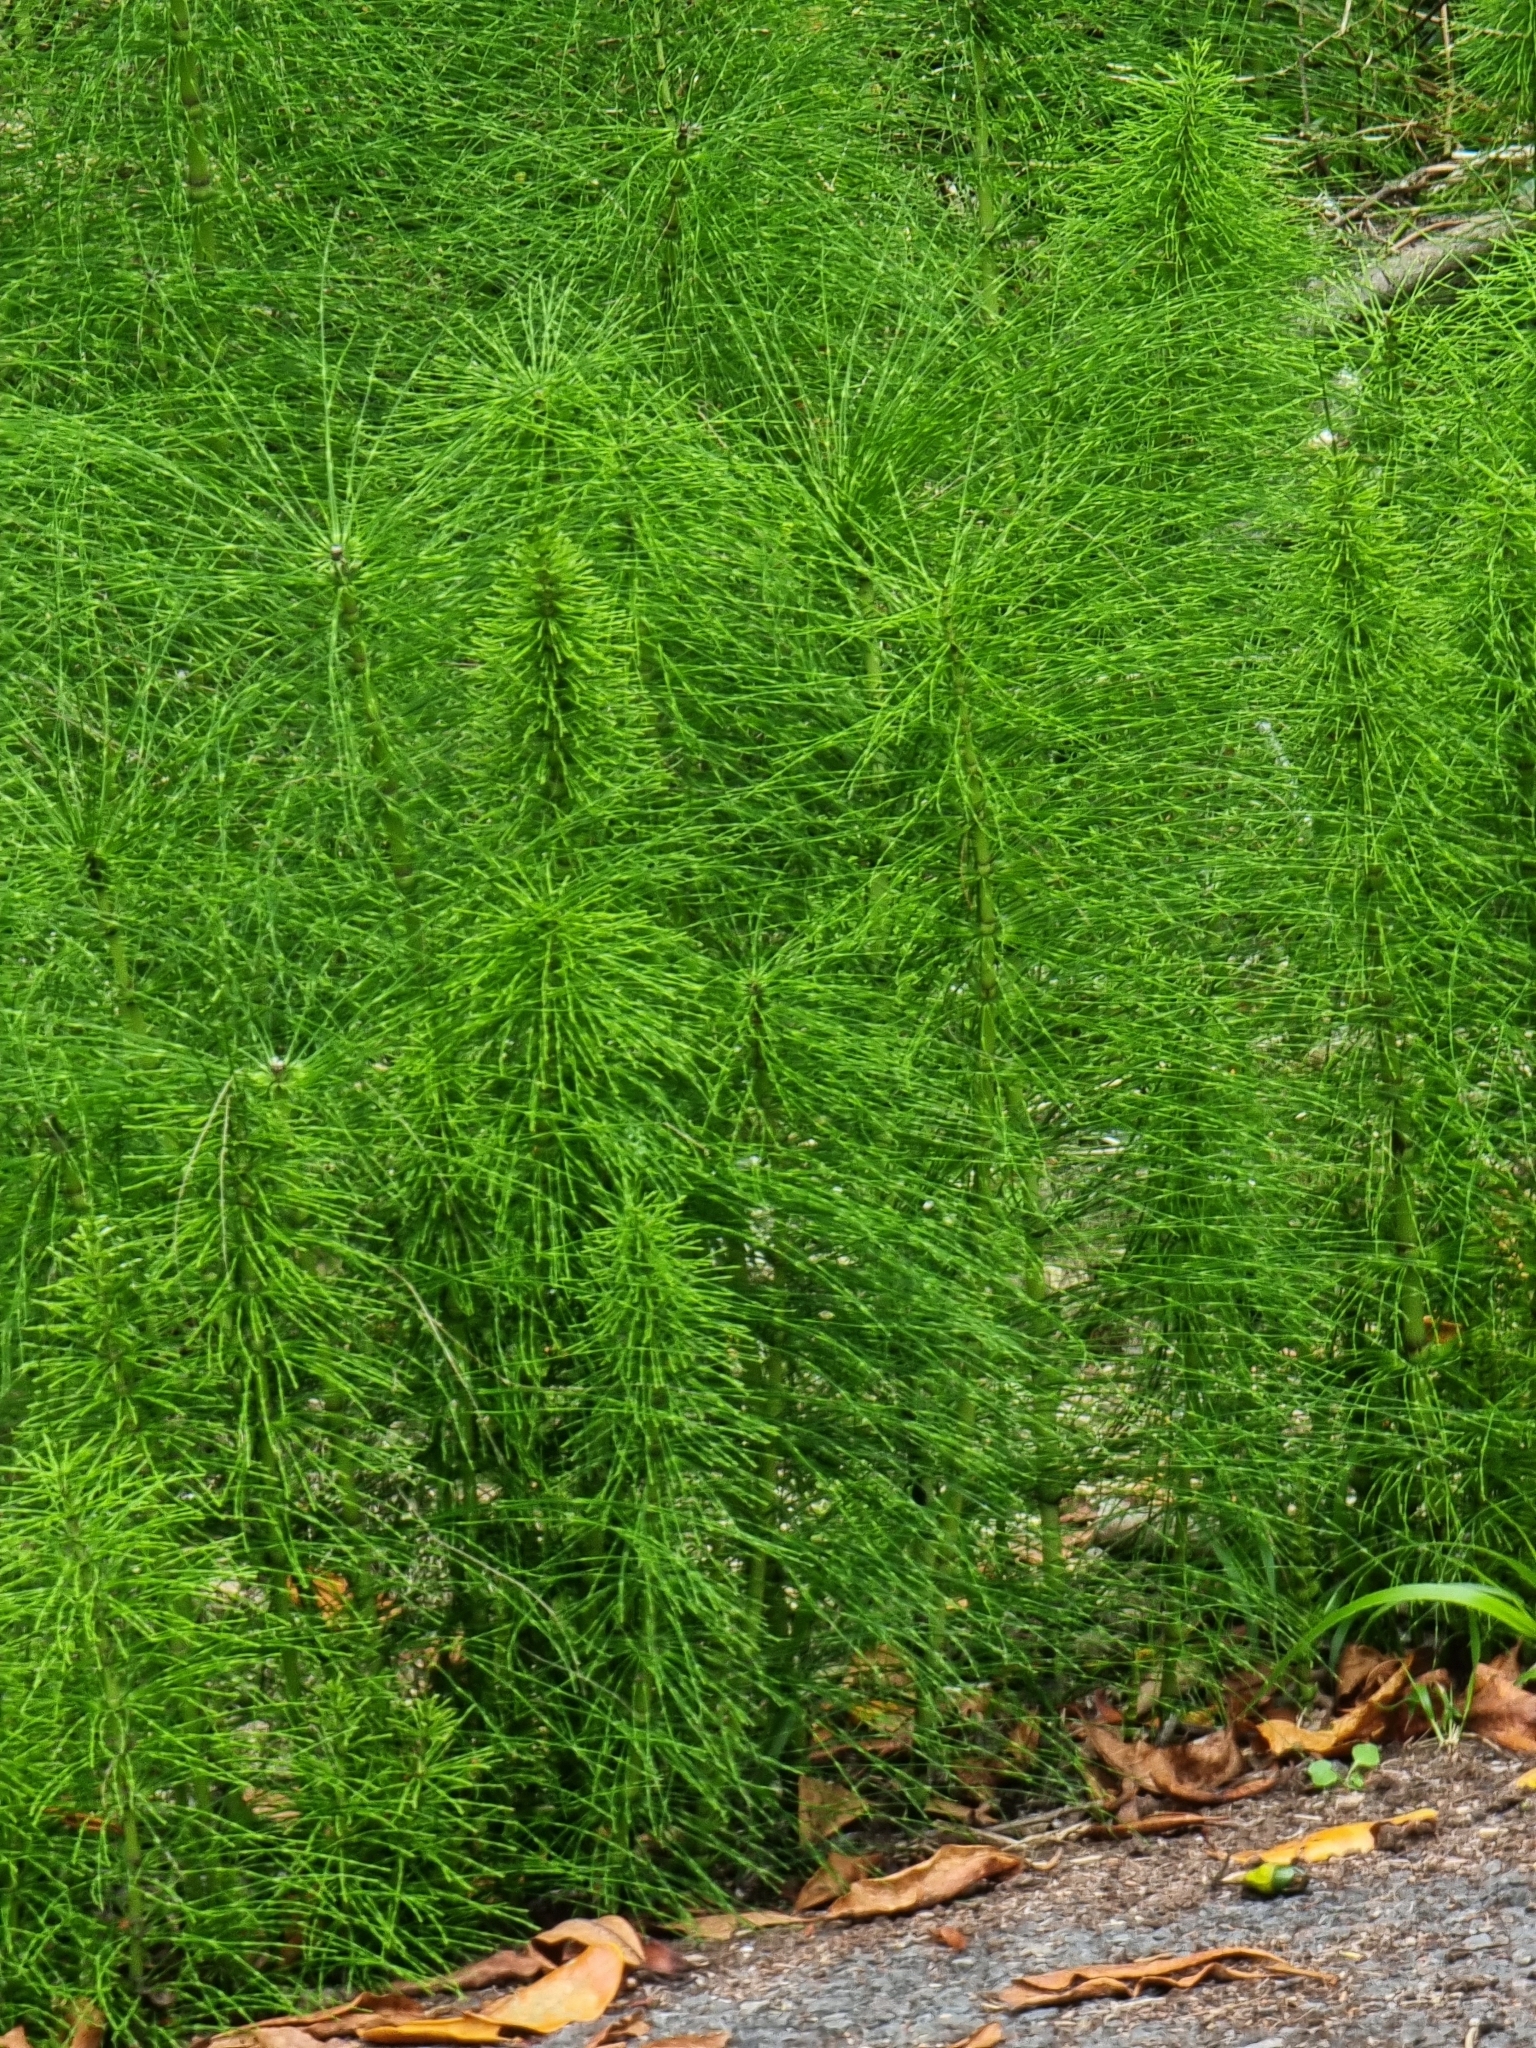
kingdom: Plantae
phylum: Tracheophyta
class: Polypodiopsida
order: Equisetales
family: Equisetaceae
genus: Equisetum
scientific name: Equisetum telmateia
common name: Great horsetail
